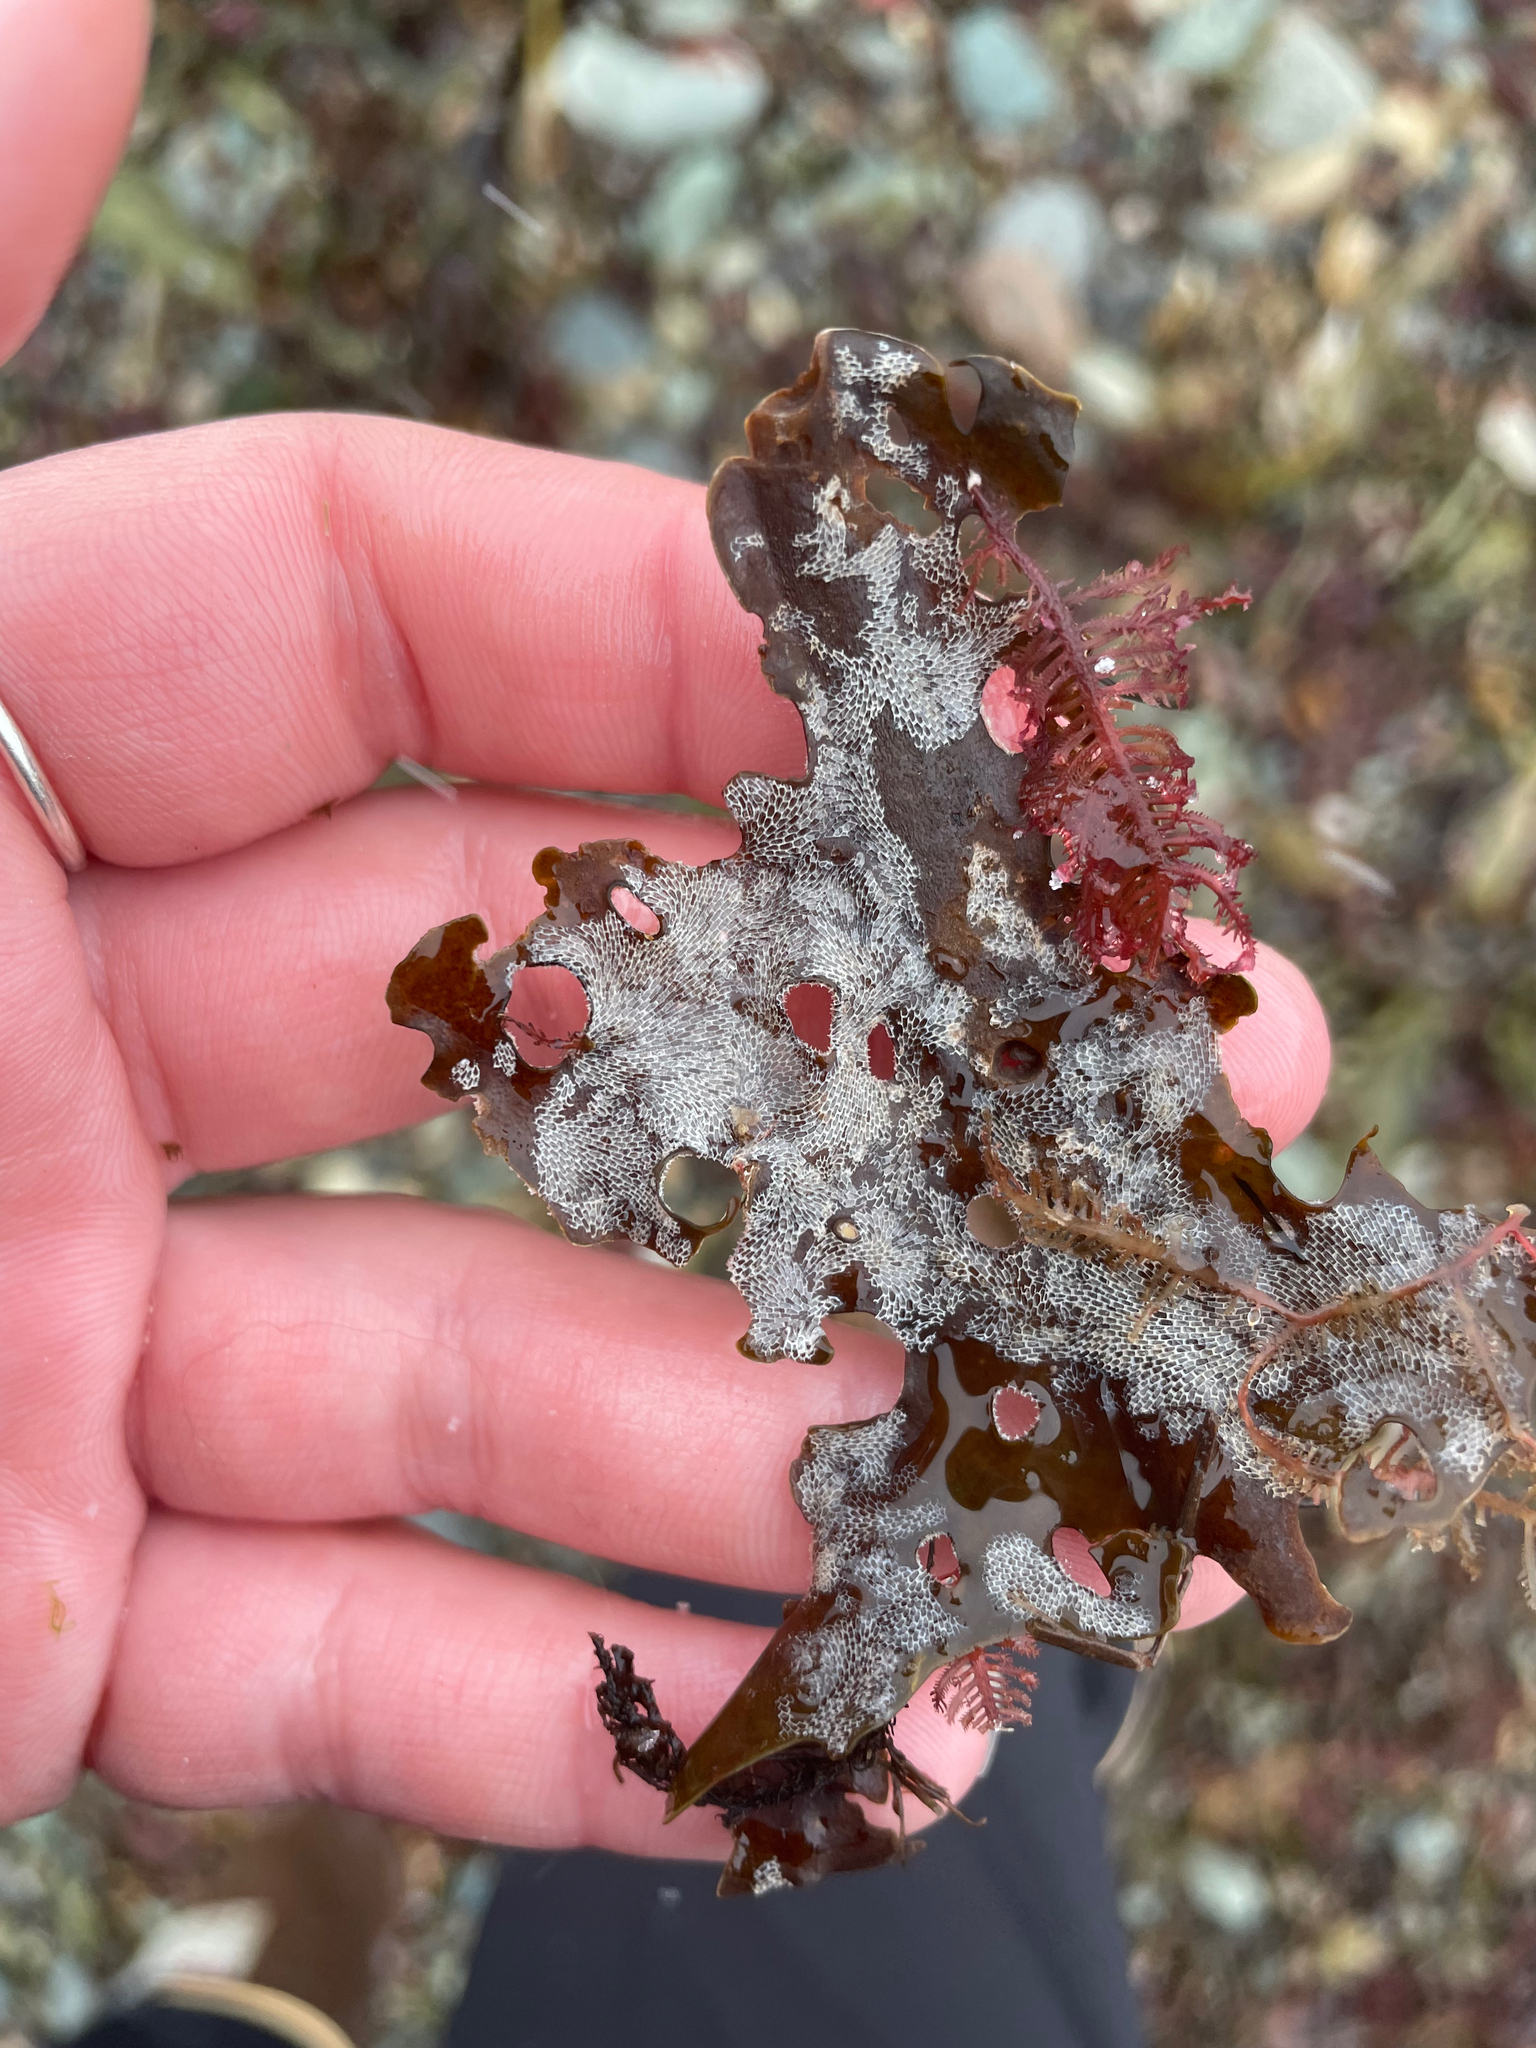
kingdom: Animalia
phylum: Bryozoa
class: Gymnolaemata
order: Cheilostomatida
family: Membraniporidae
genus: Membranipora
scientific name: Membranipora membranacea
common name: Sea mat
